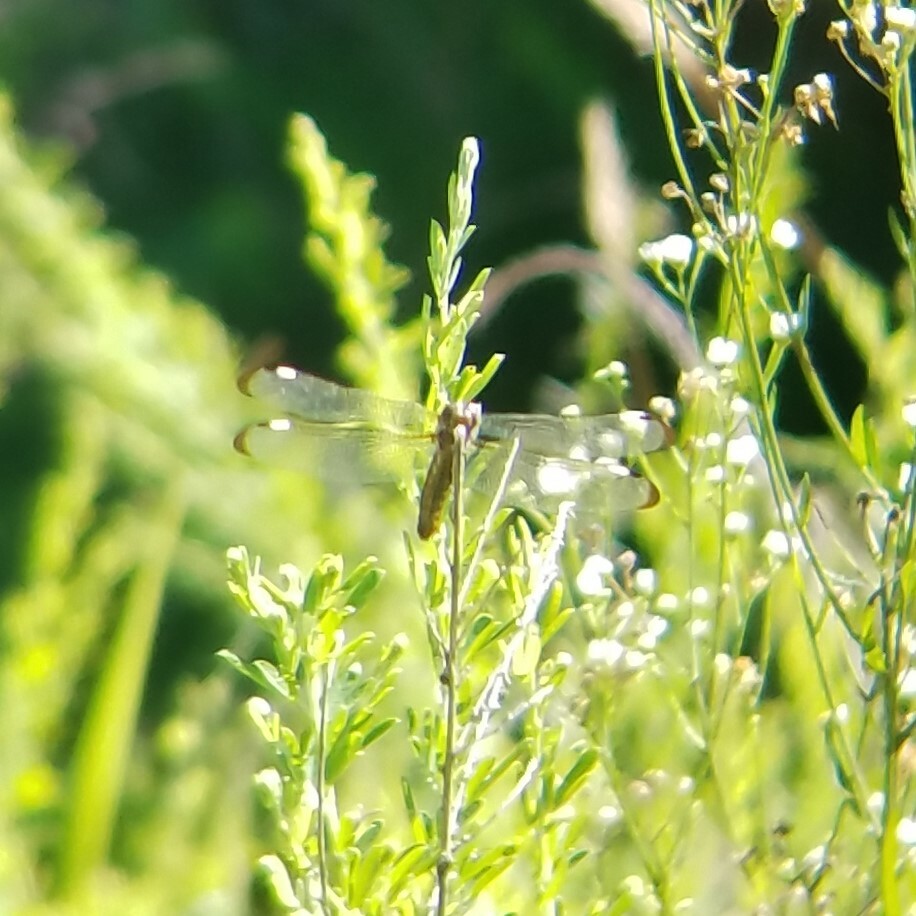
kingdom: Animalia
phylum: Arthropoda
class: Insecta
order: Odonata
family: Libellulidae
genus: Libellula
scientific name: Libellula cyanea
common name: Spangled skimmer
